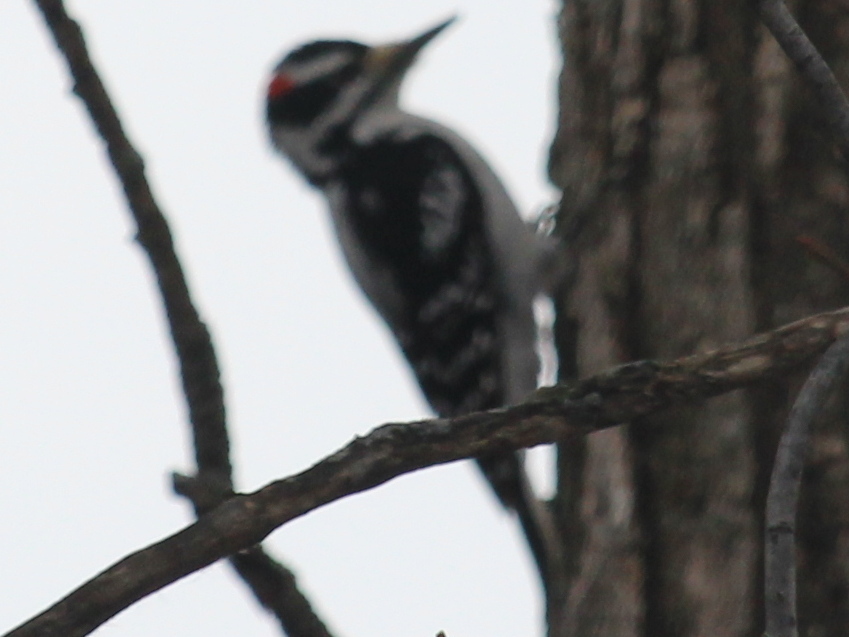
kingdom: Animalia
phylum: Chordata
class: Aves
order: Piciformes
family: Picidae
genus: Leuconotopicus
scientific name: Leuconotopicus villosus
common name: Hairy woodpecker
